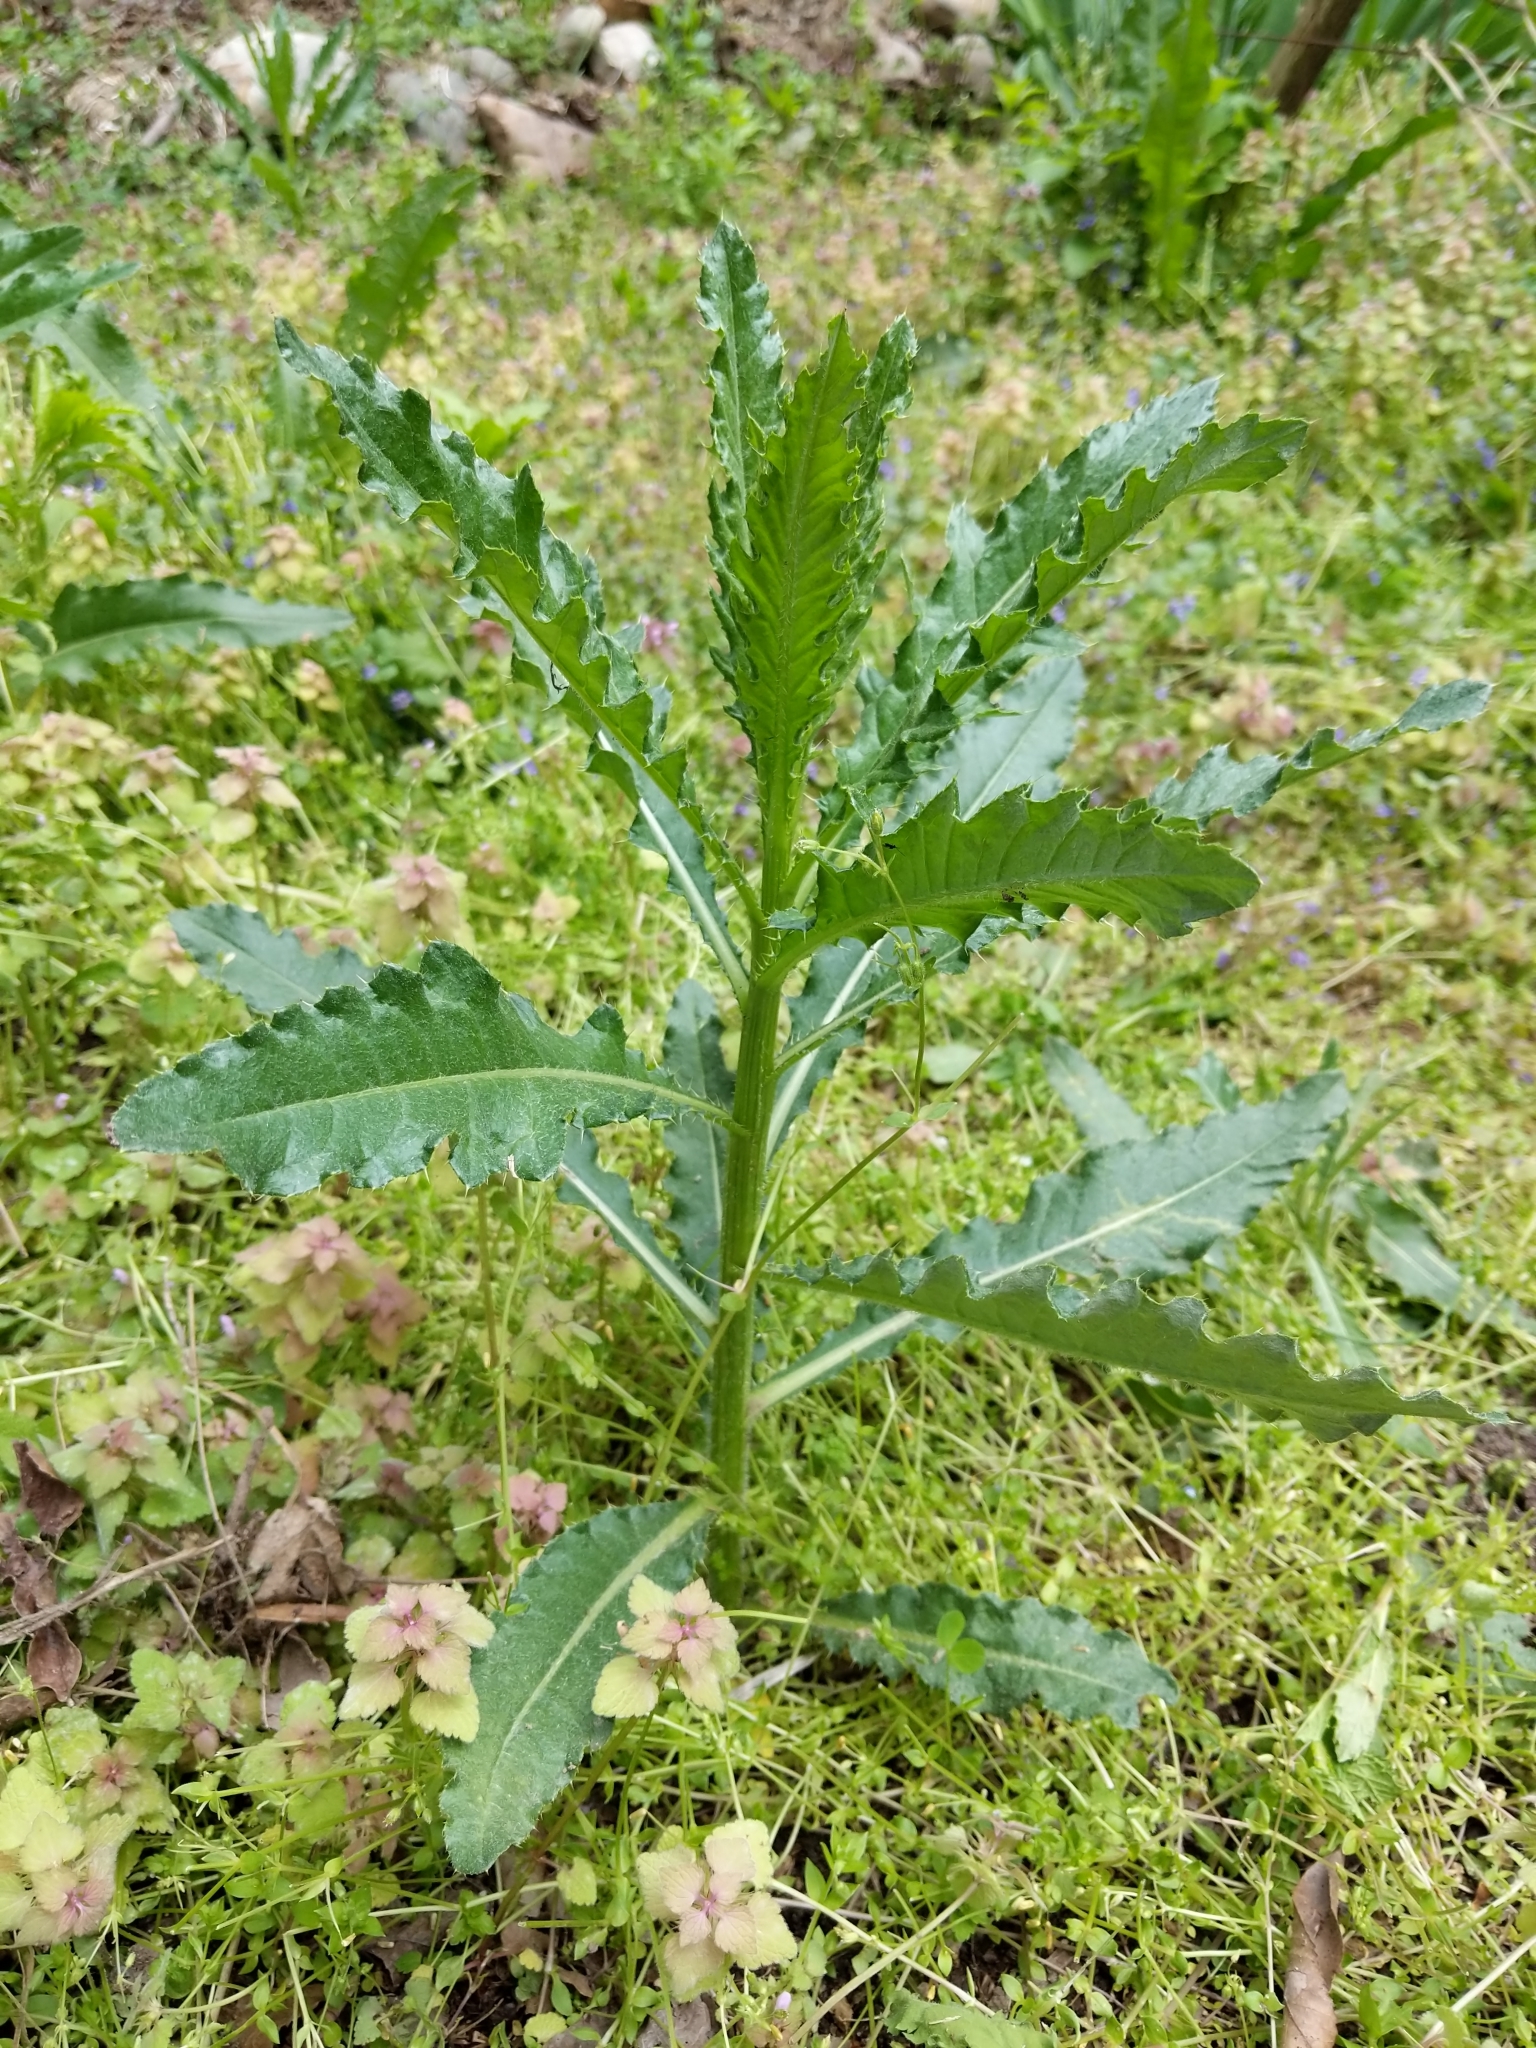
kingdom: Plantae
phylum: Tracheophyta
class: Magnoliopsida
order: Asterales
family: Asteraceae
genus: Cirsium
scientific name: Cirsium arvense
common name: Creeping thistle
